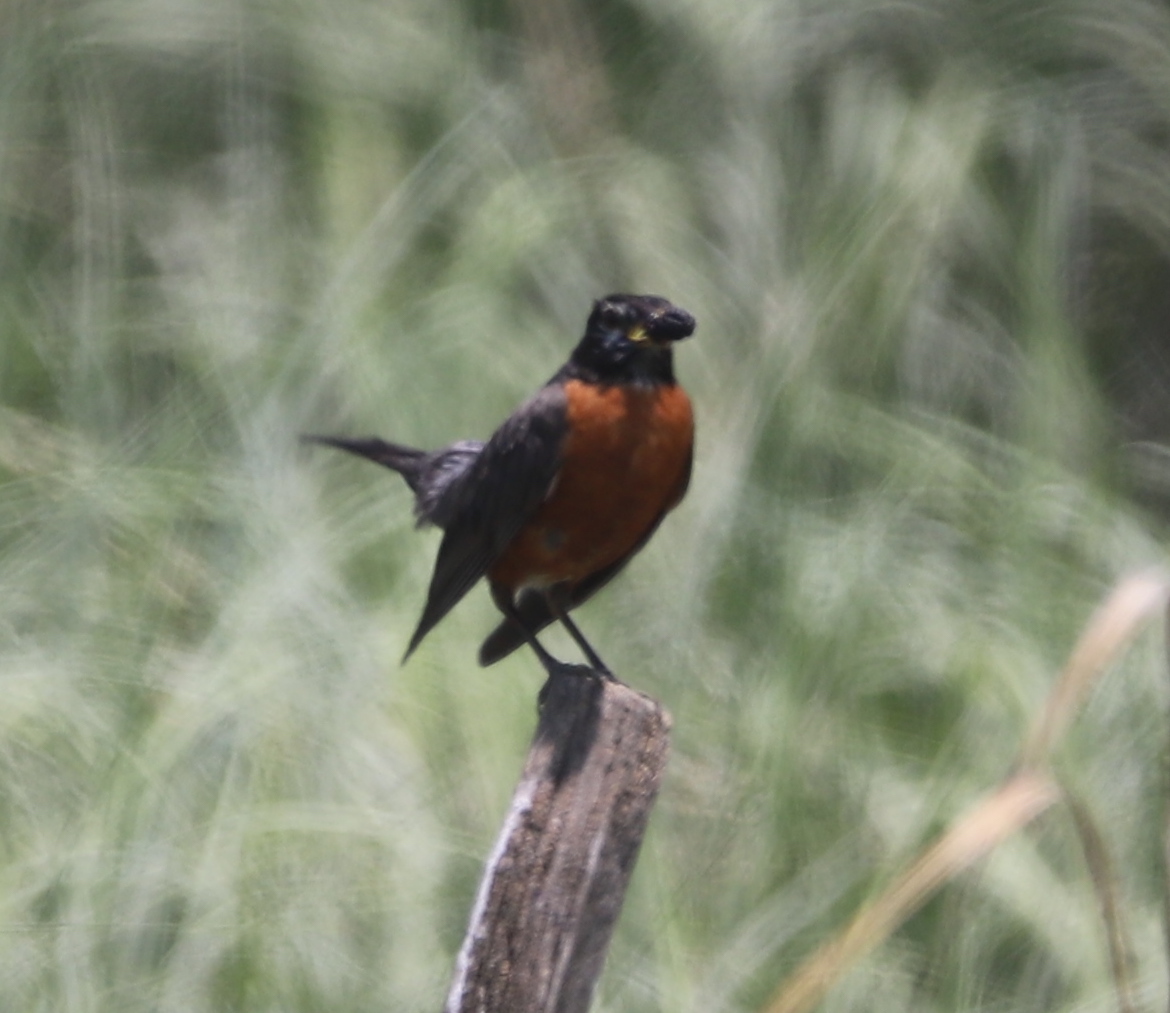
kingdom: Animalia
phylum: Chordata
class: Aves
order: Passeriformes
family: Turdidae
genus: Turdus
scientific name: Turdus migratorius
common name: American robin
